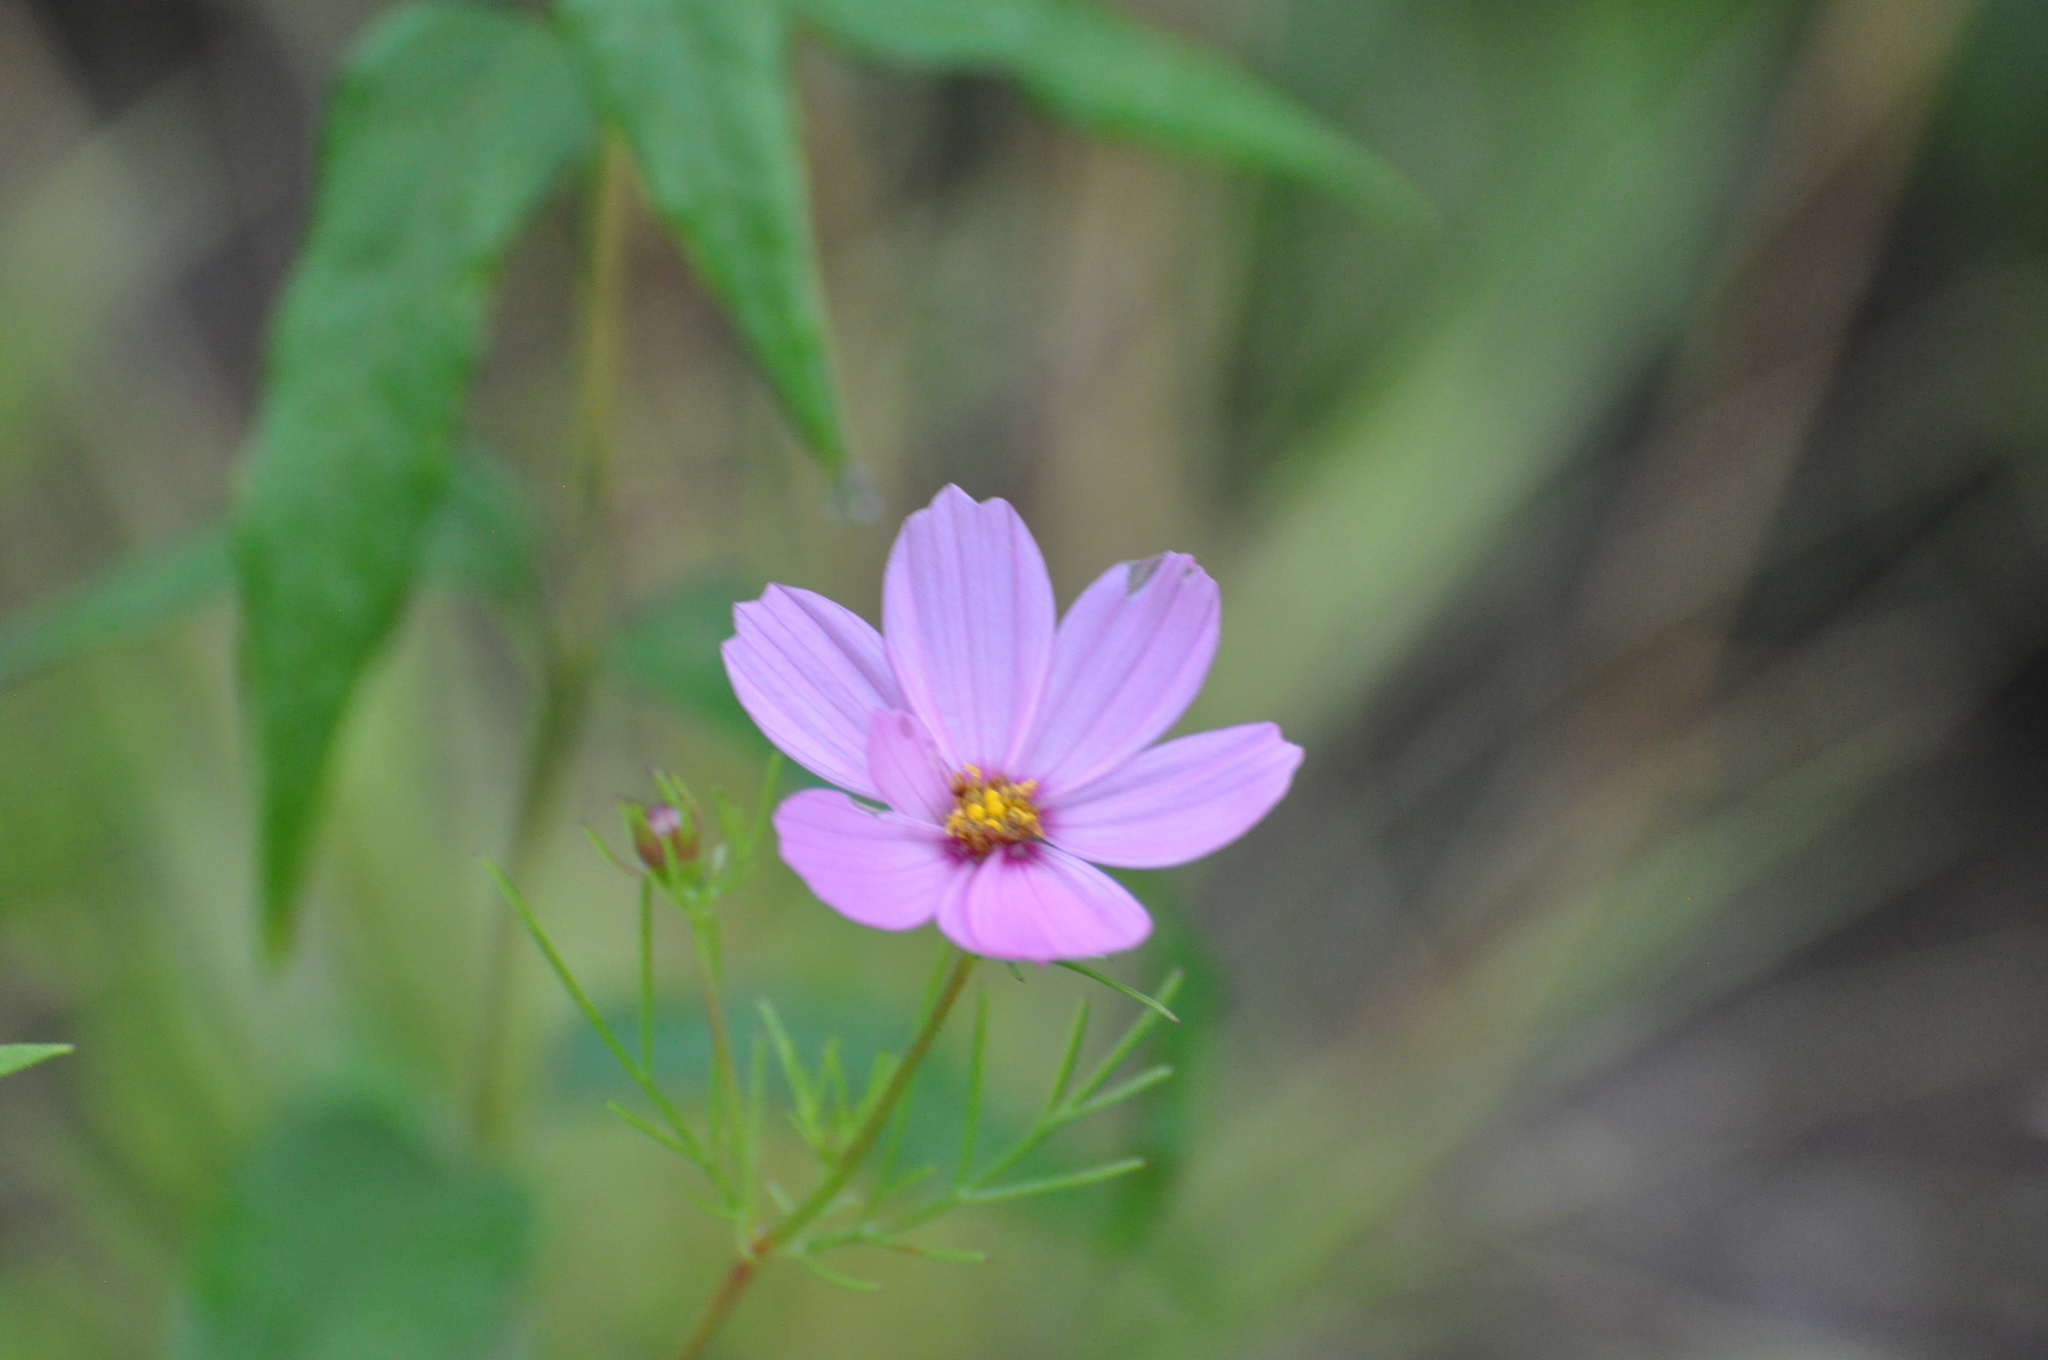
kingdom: Plantae
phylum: Tracheophyta
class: Magnoliopsida
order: Asterales
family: Asteraceae
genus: Cosmos
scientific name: Cosmos bipinnatus
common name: Garden cosmos
